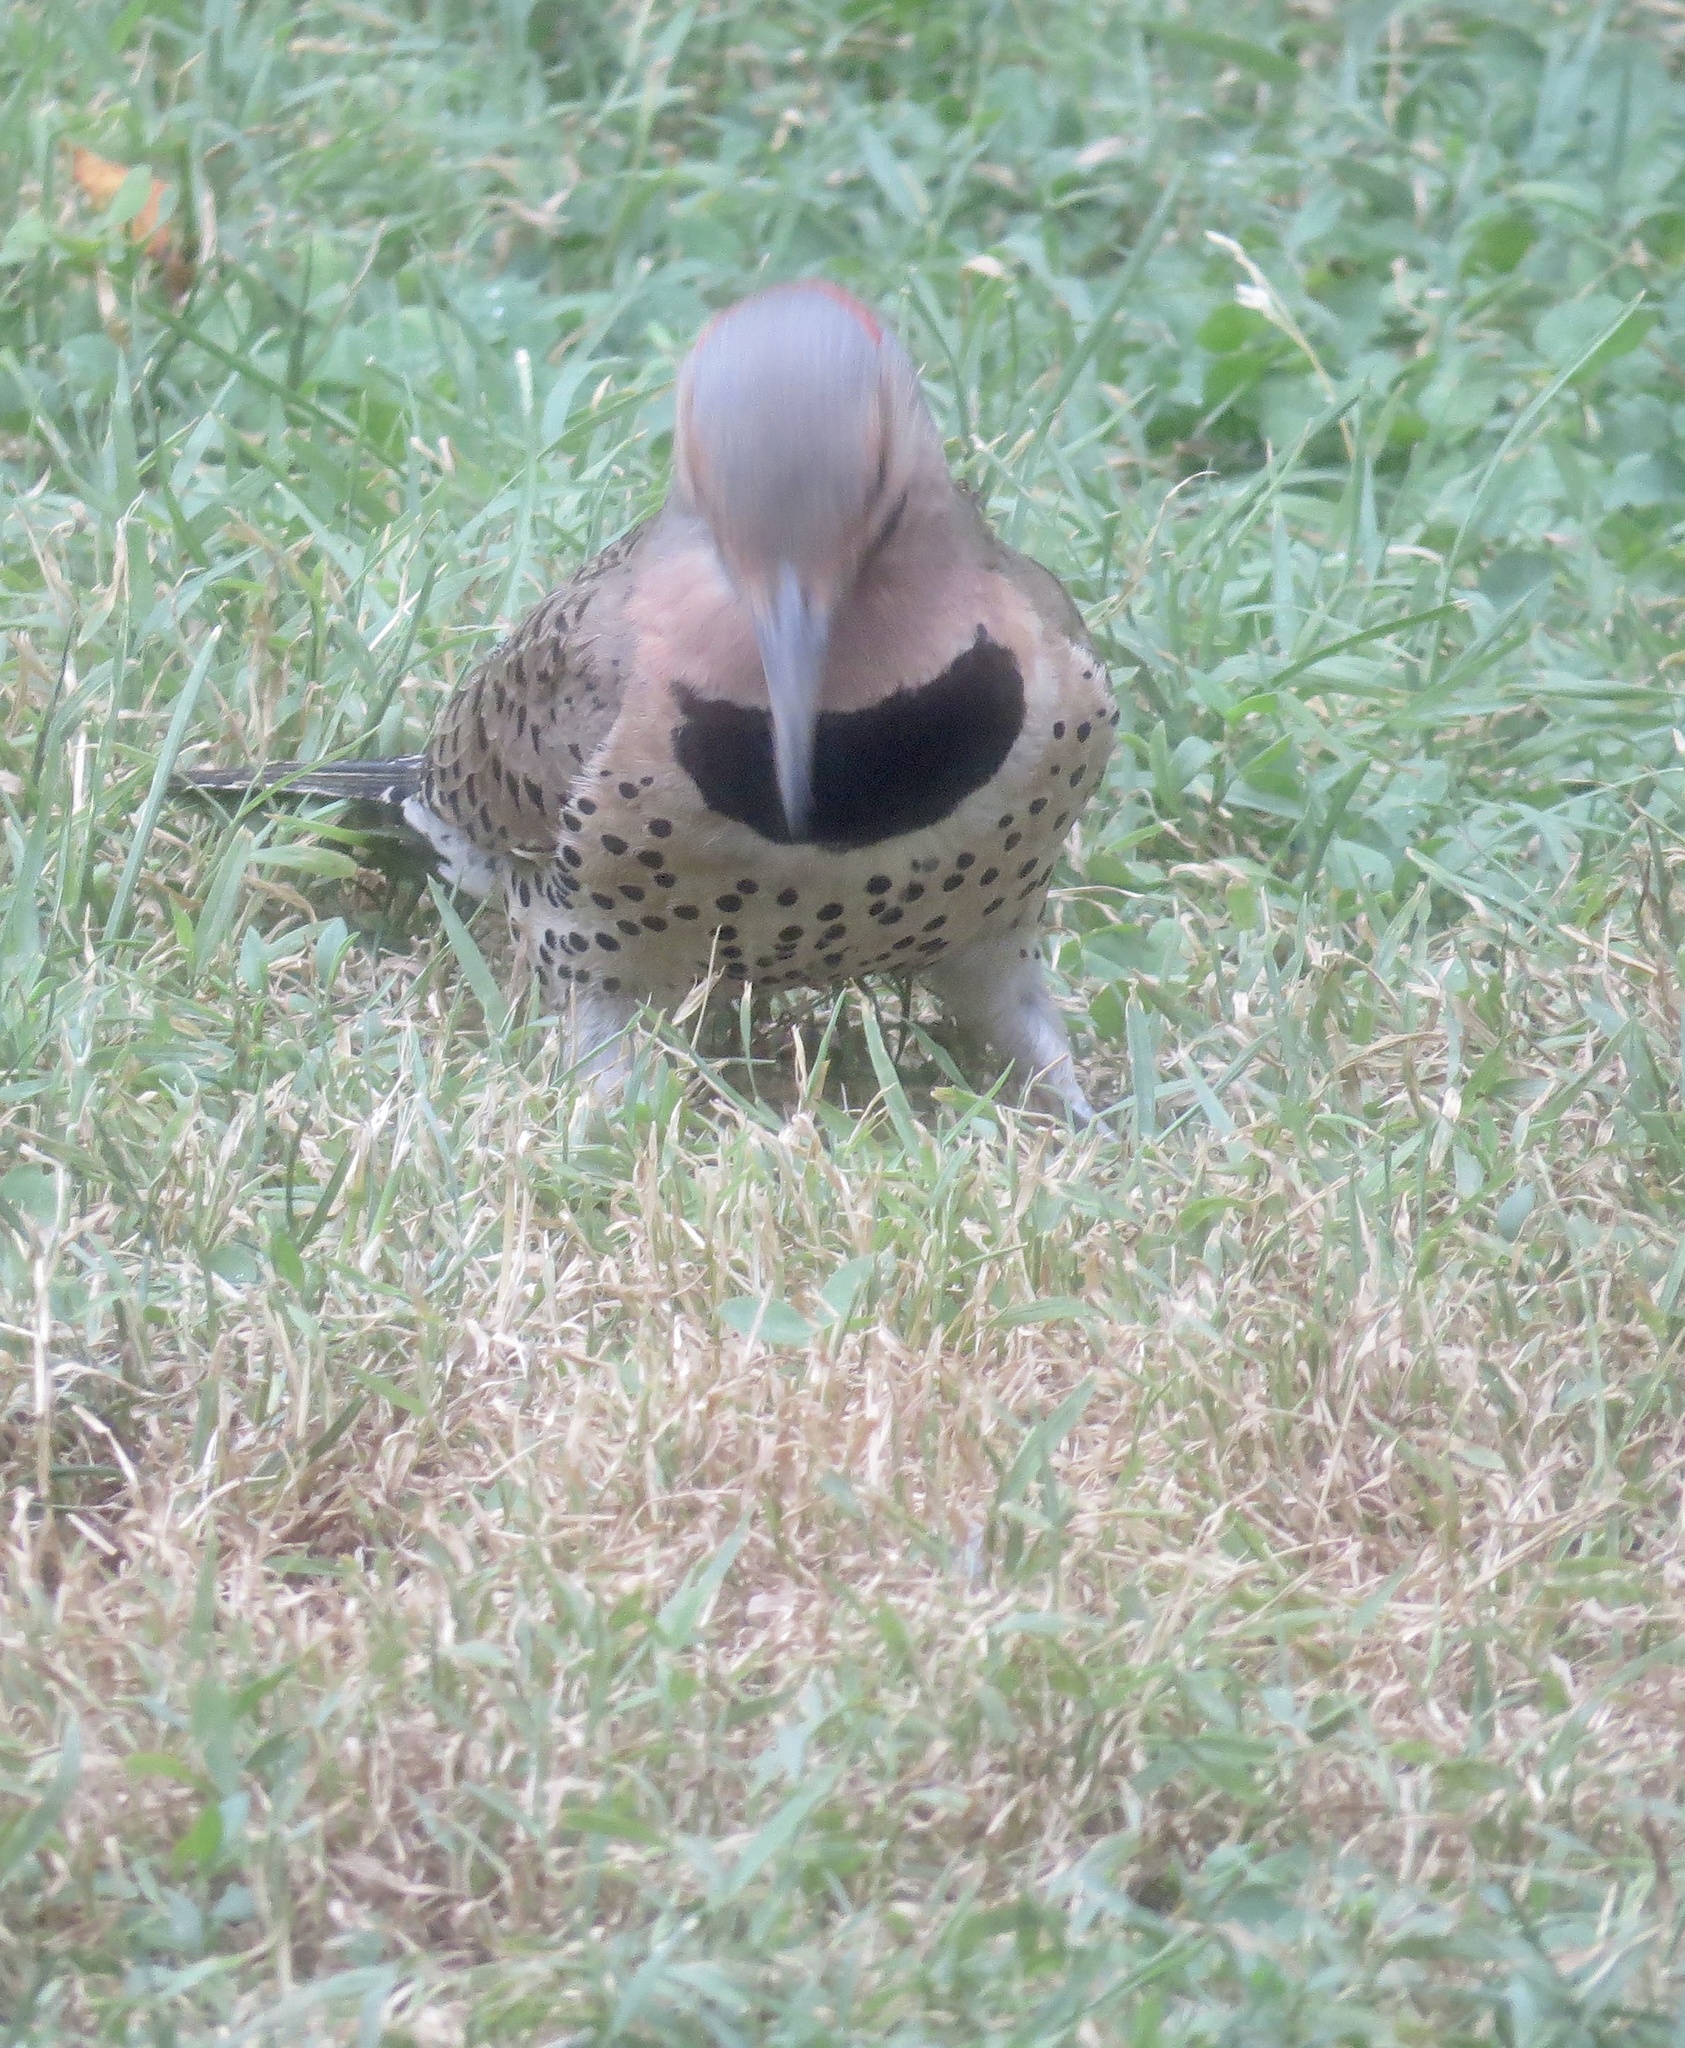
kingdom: Animalia
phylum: Chordata
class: Aves
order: Piciformes
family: Picidae
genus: Colaptes
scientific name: Colaptes auratus
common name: Northern flicker
